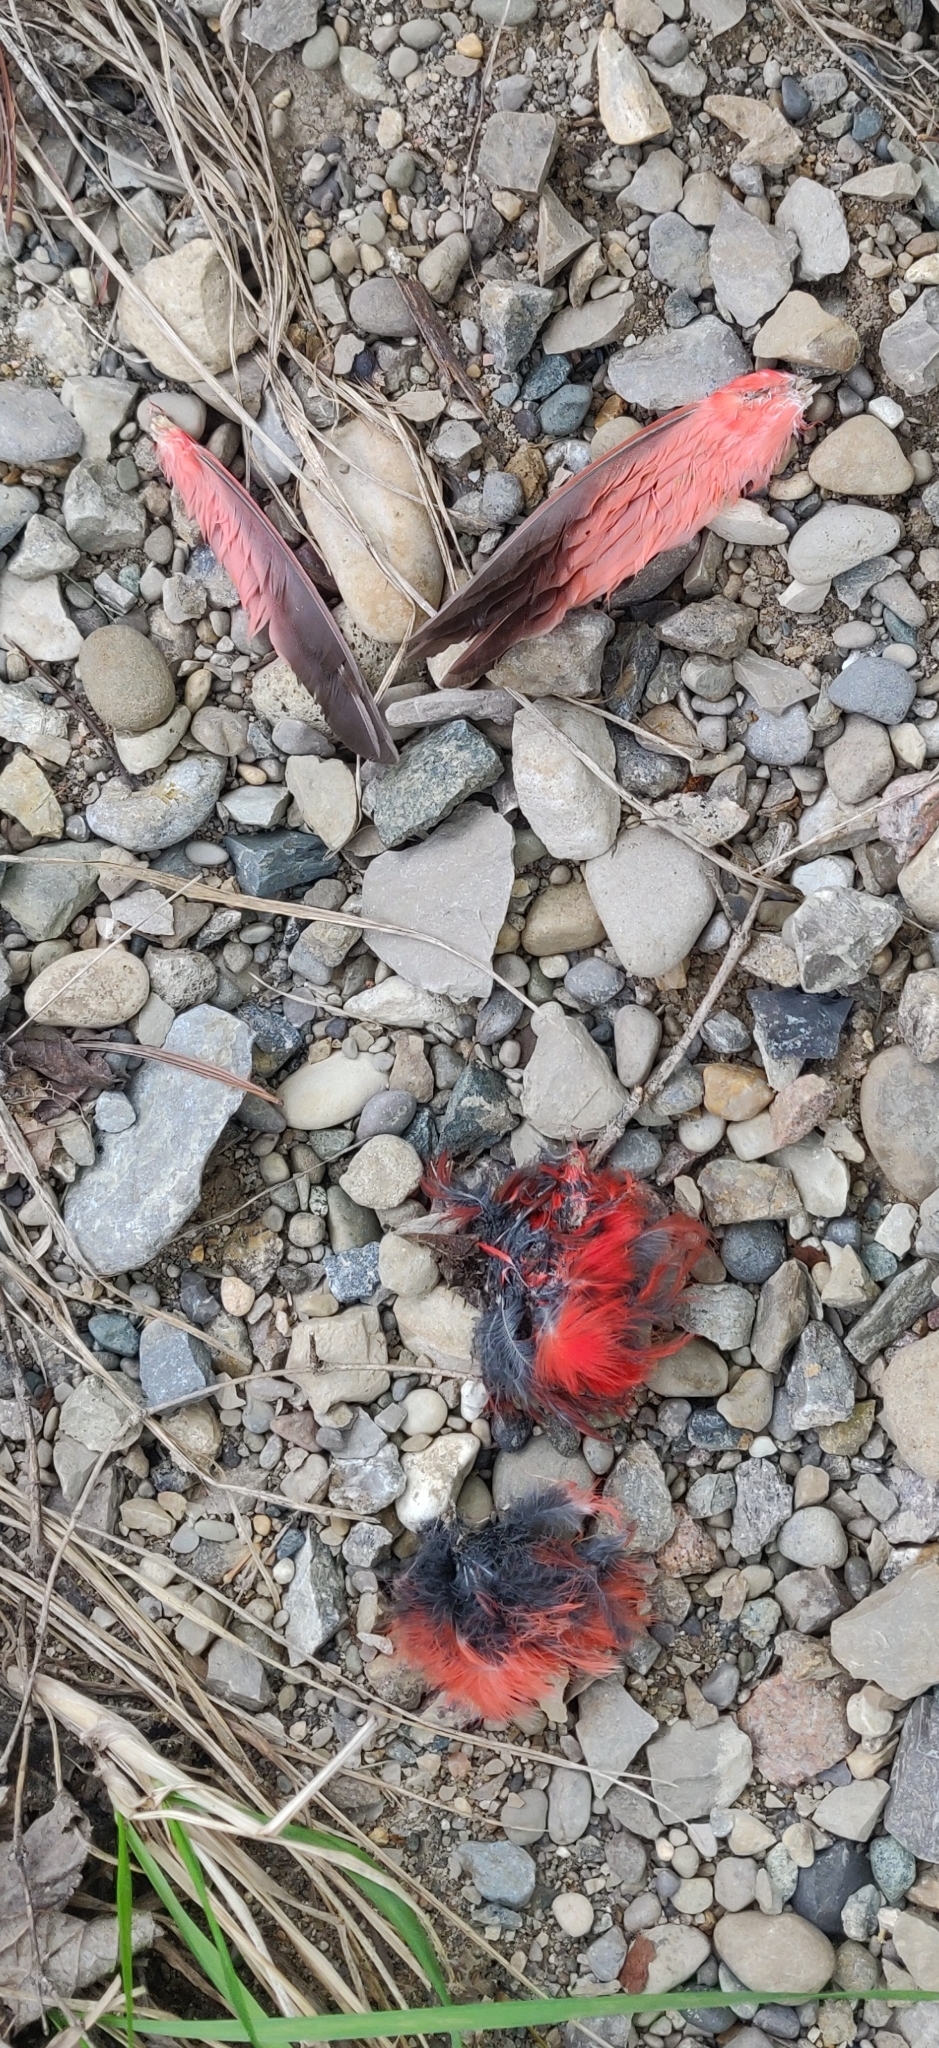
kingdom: Animalia
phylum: Chordata
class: Aves
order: Passeriformes
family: Cardinalidae
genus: Cardinalis
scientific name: Cardinalis cardinalis
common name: Northern cardinal
